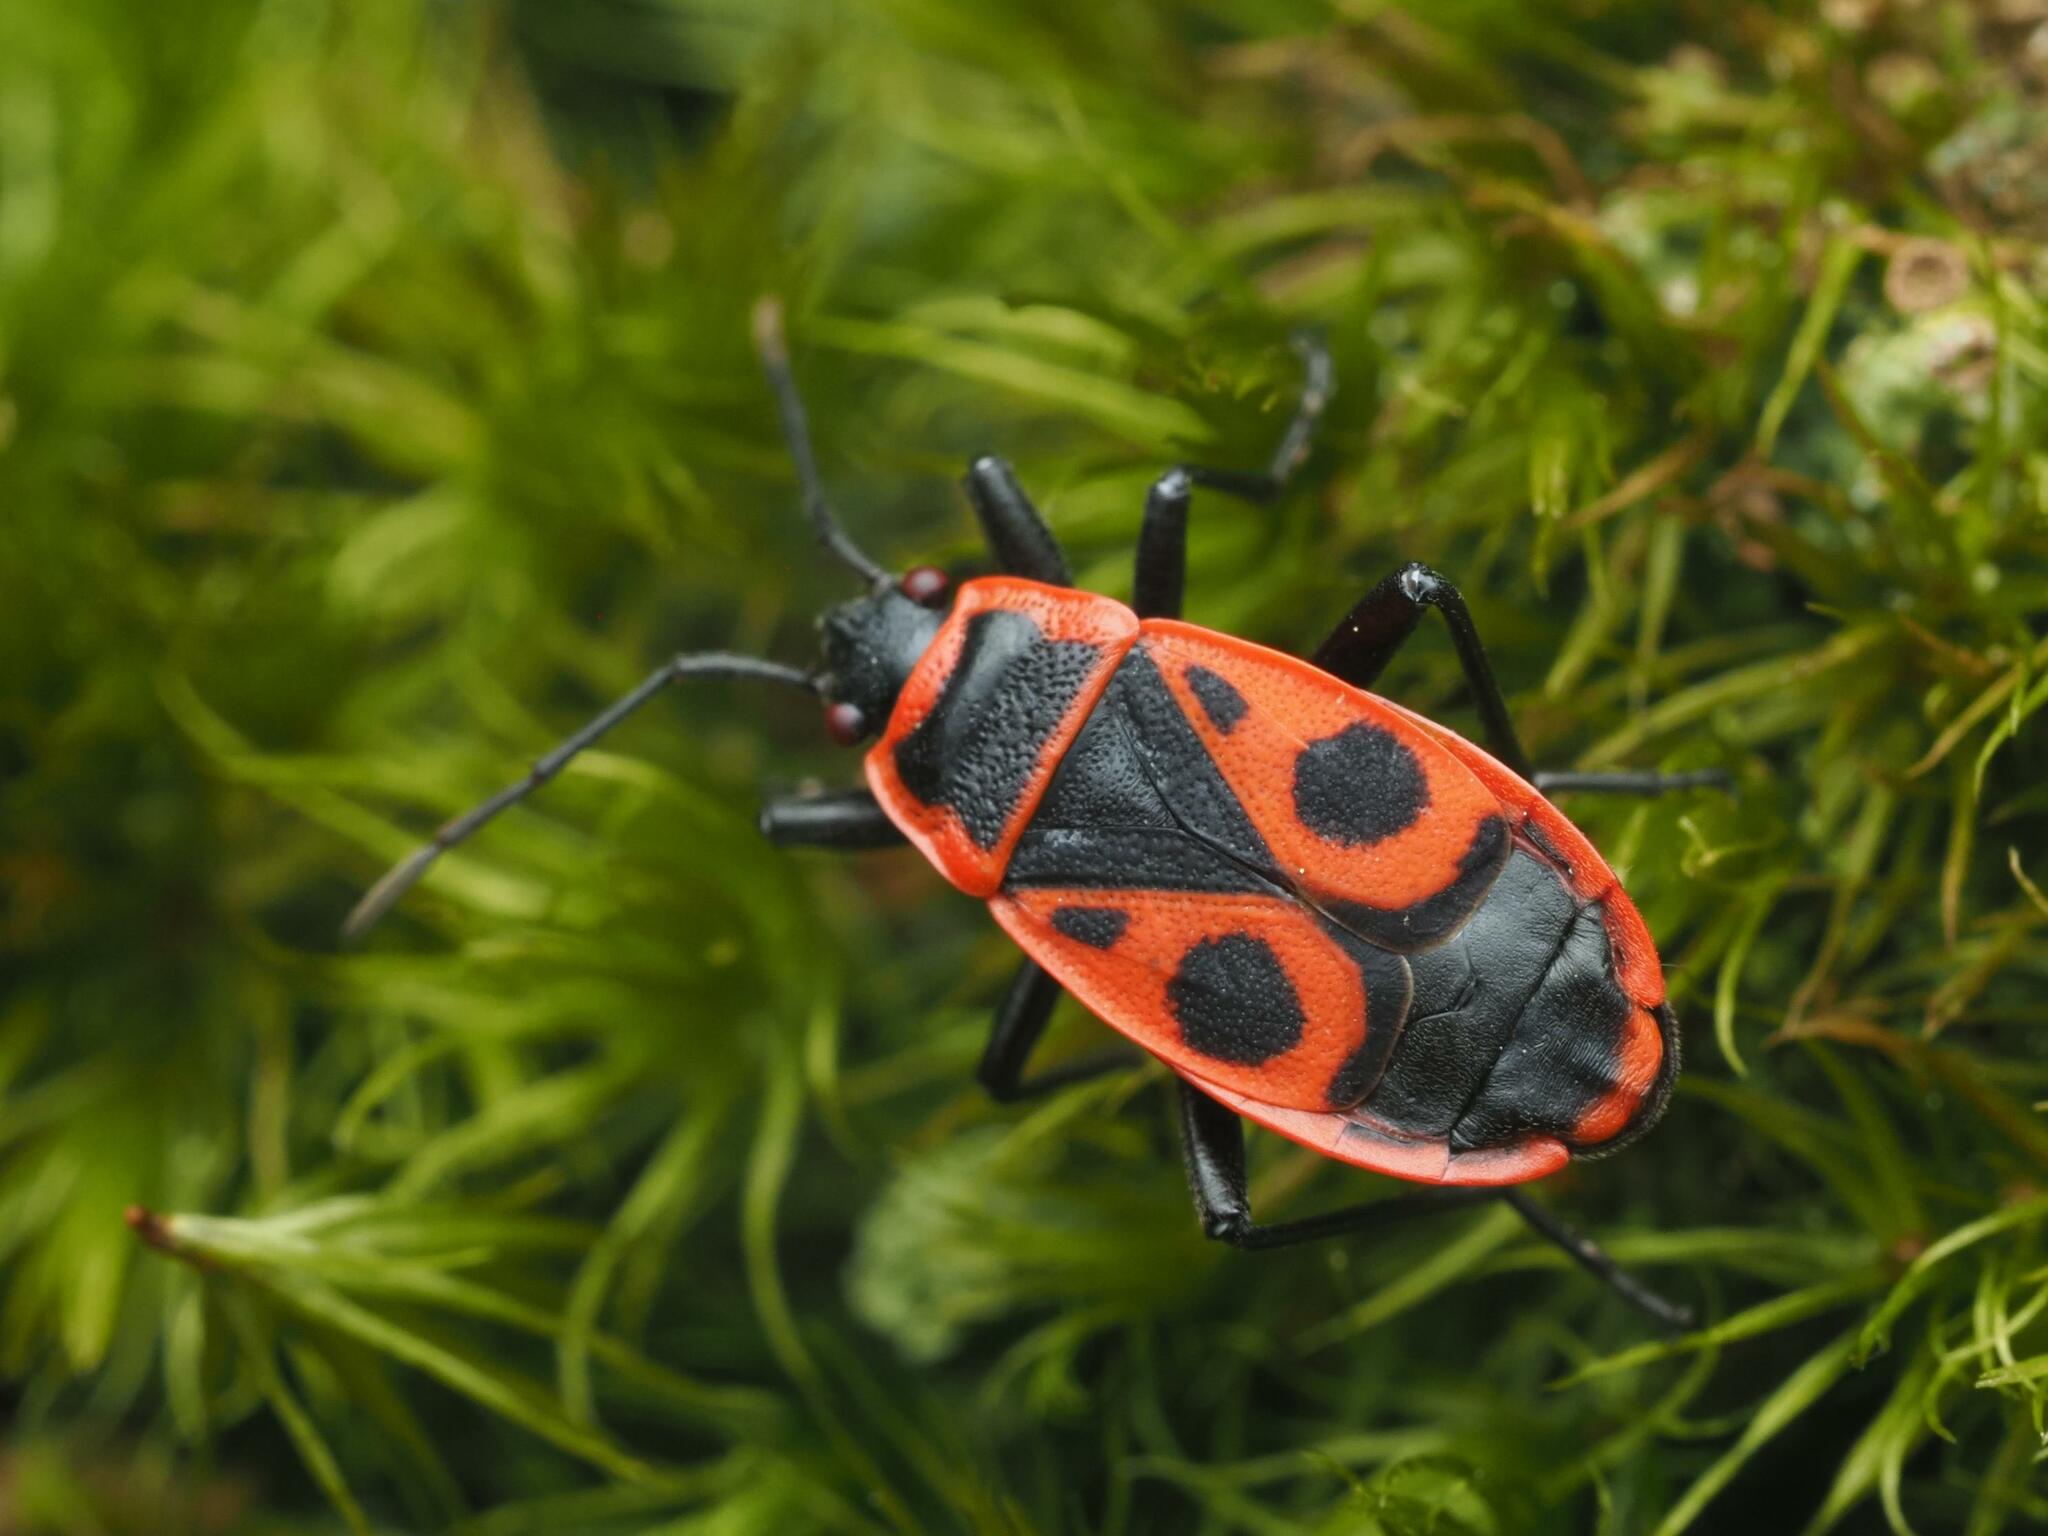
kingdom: Animalia
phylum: Arthropoda
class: Insecta
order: Hemiptera
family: Pyrrhocoridae
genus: Pyrrhocoris
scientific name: Pyrrhocoris apterus
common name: Firebug
